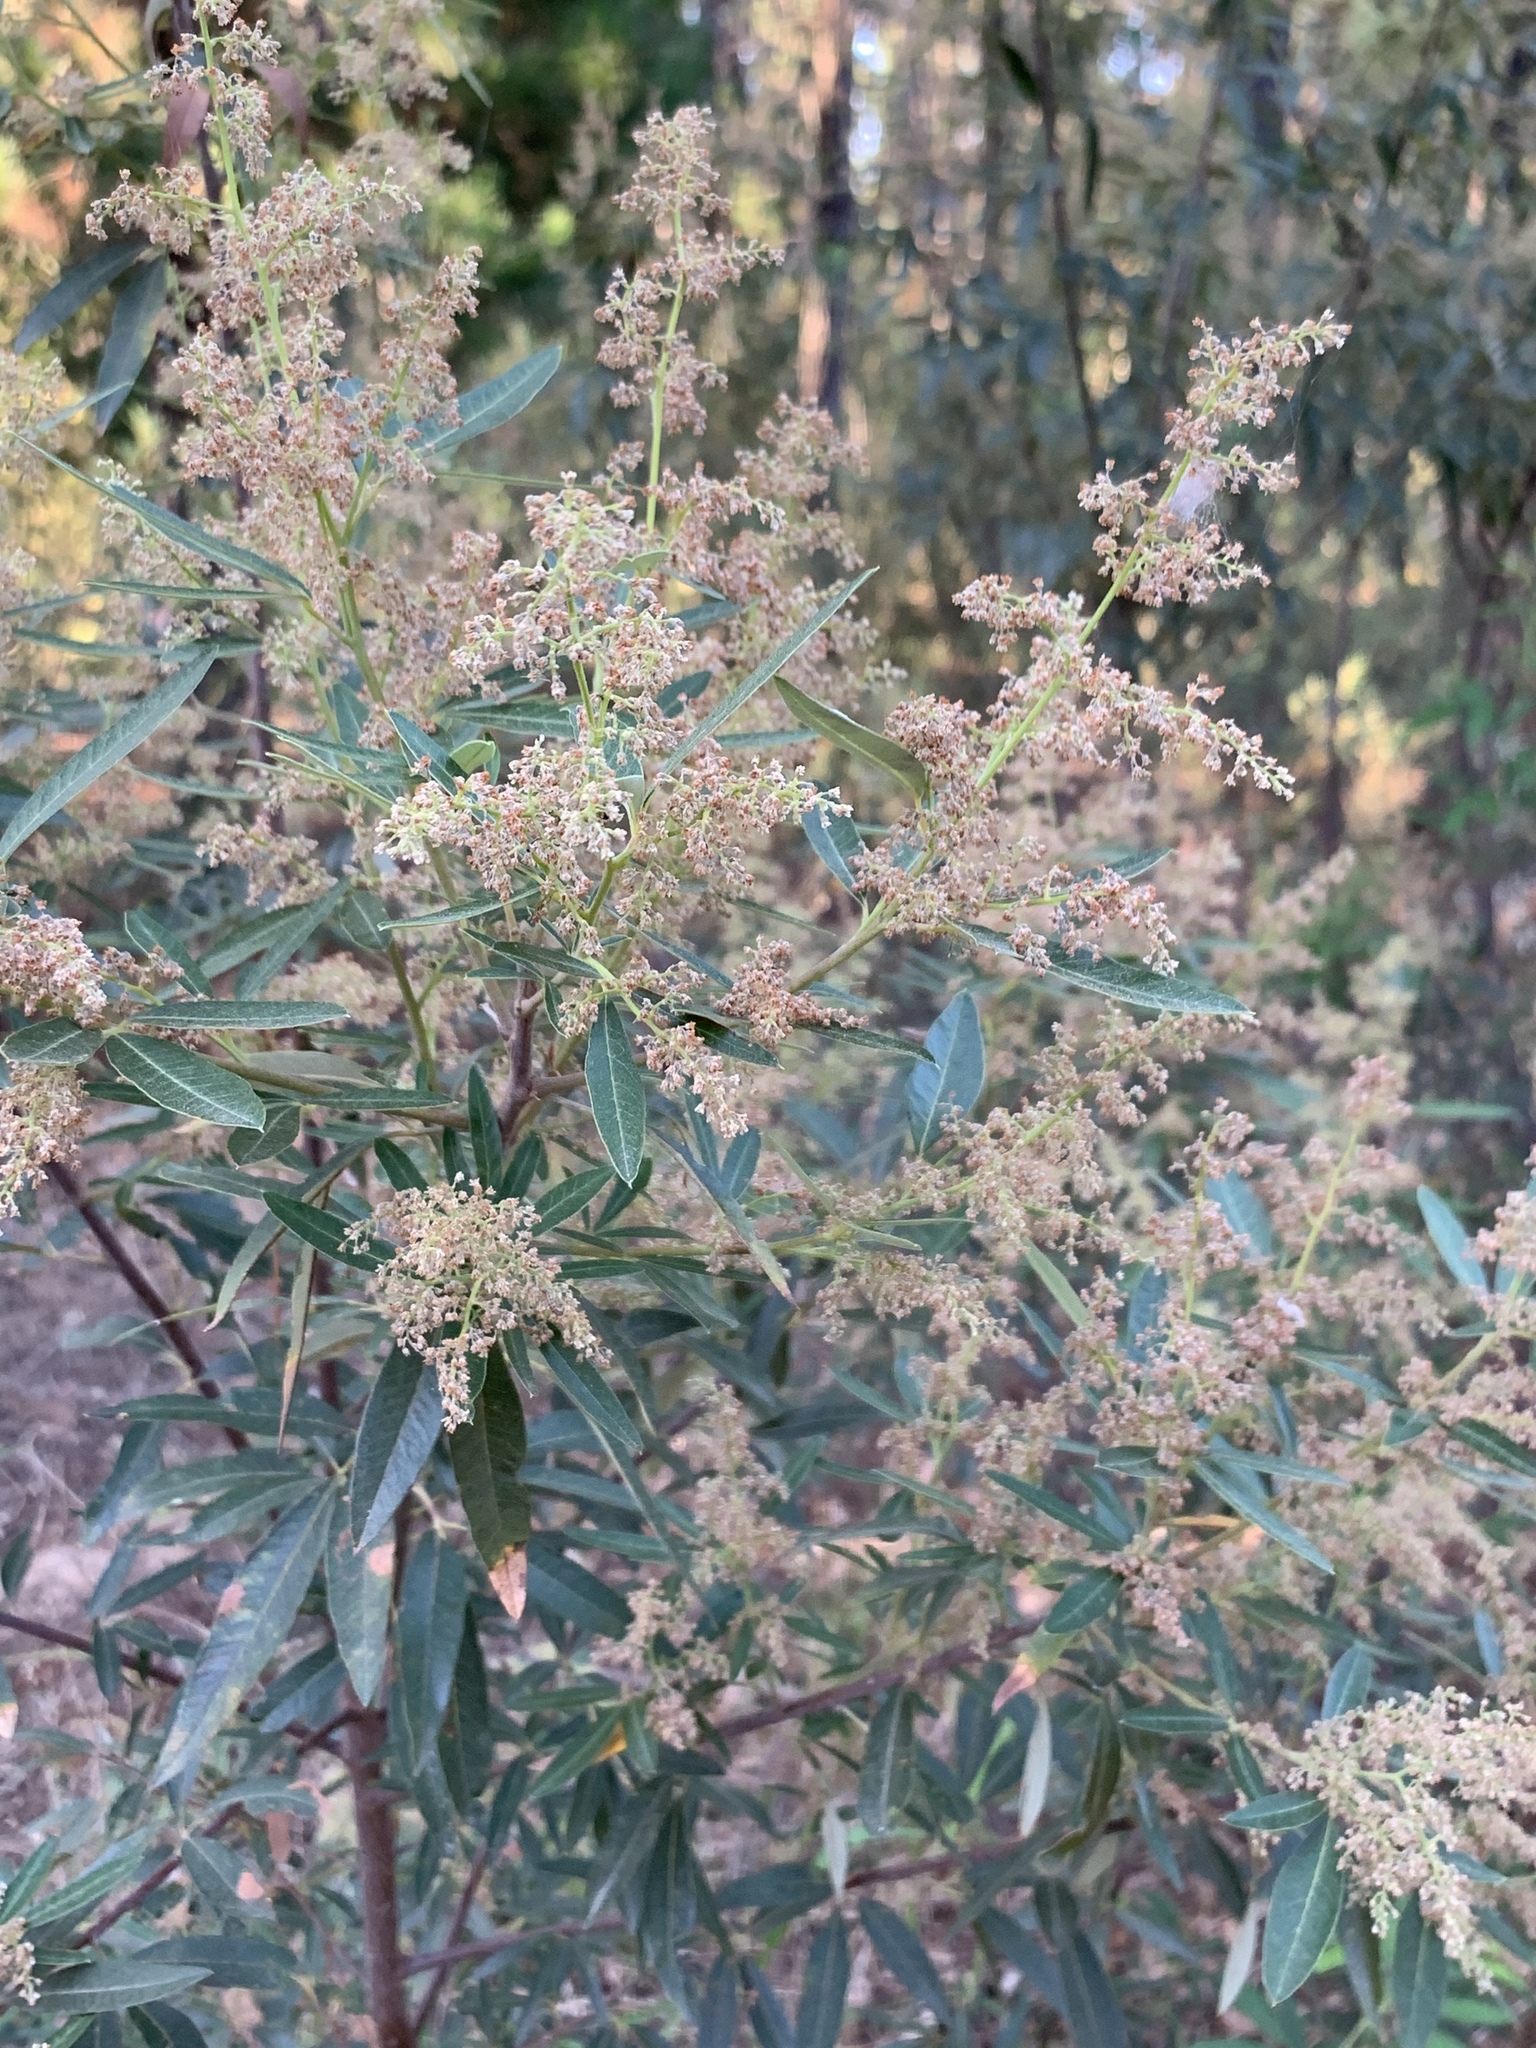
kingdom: Plantae
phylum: Tracheophyta
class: Magnoliopsida
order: Sapindales
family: Anacardiaceae
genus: Searsia
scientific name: Searsia angustifolia
